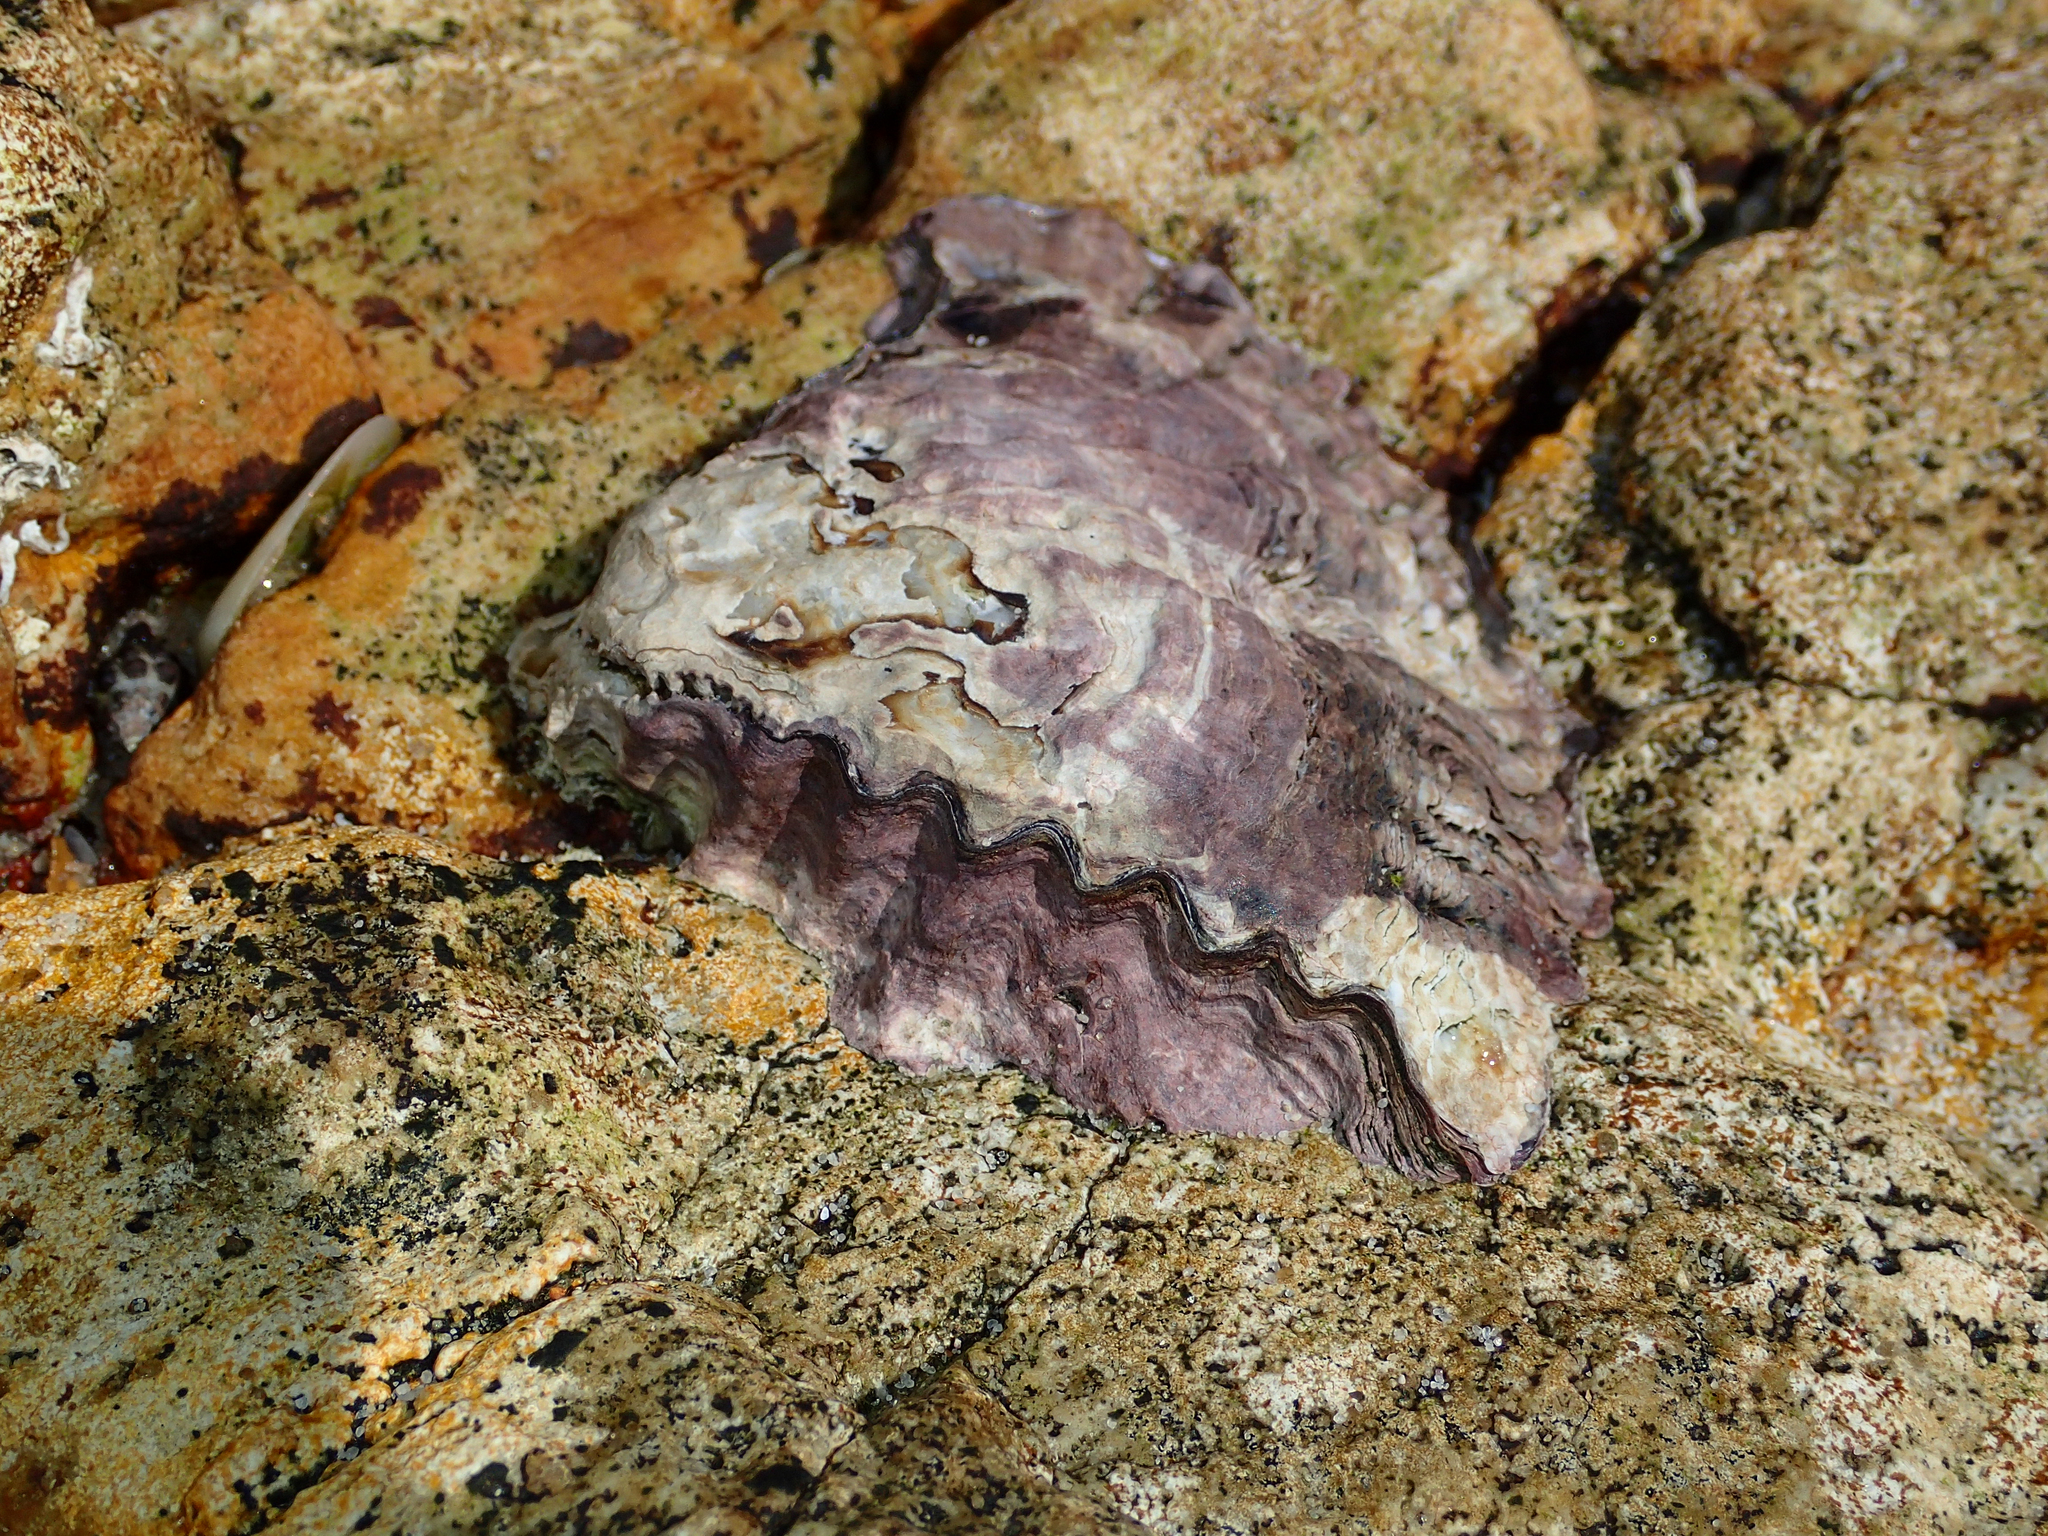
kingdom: Animalia
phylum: Mollusca
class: Bivalvia
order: Ostreida
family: Ostreidae
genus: Saccostrea
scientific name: Saccostrea glomerata
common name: Sydney cupped oyster
